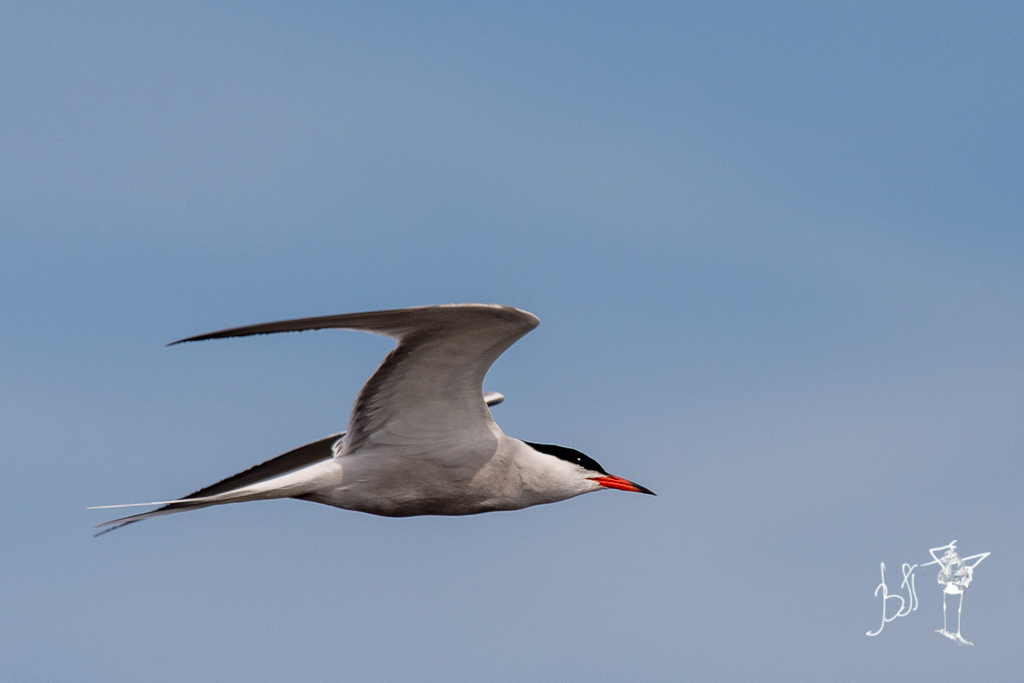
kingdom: Animalia
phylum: Chordata
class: Aves
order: Charadriiformes
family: Laridae
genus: Sterna
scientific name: Sterna hirundo
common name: Common tern
